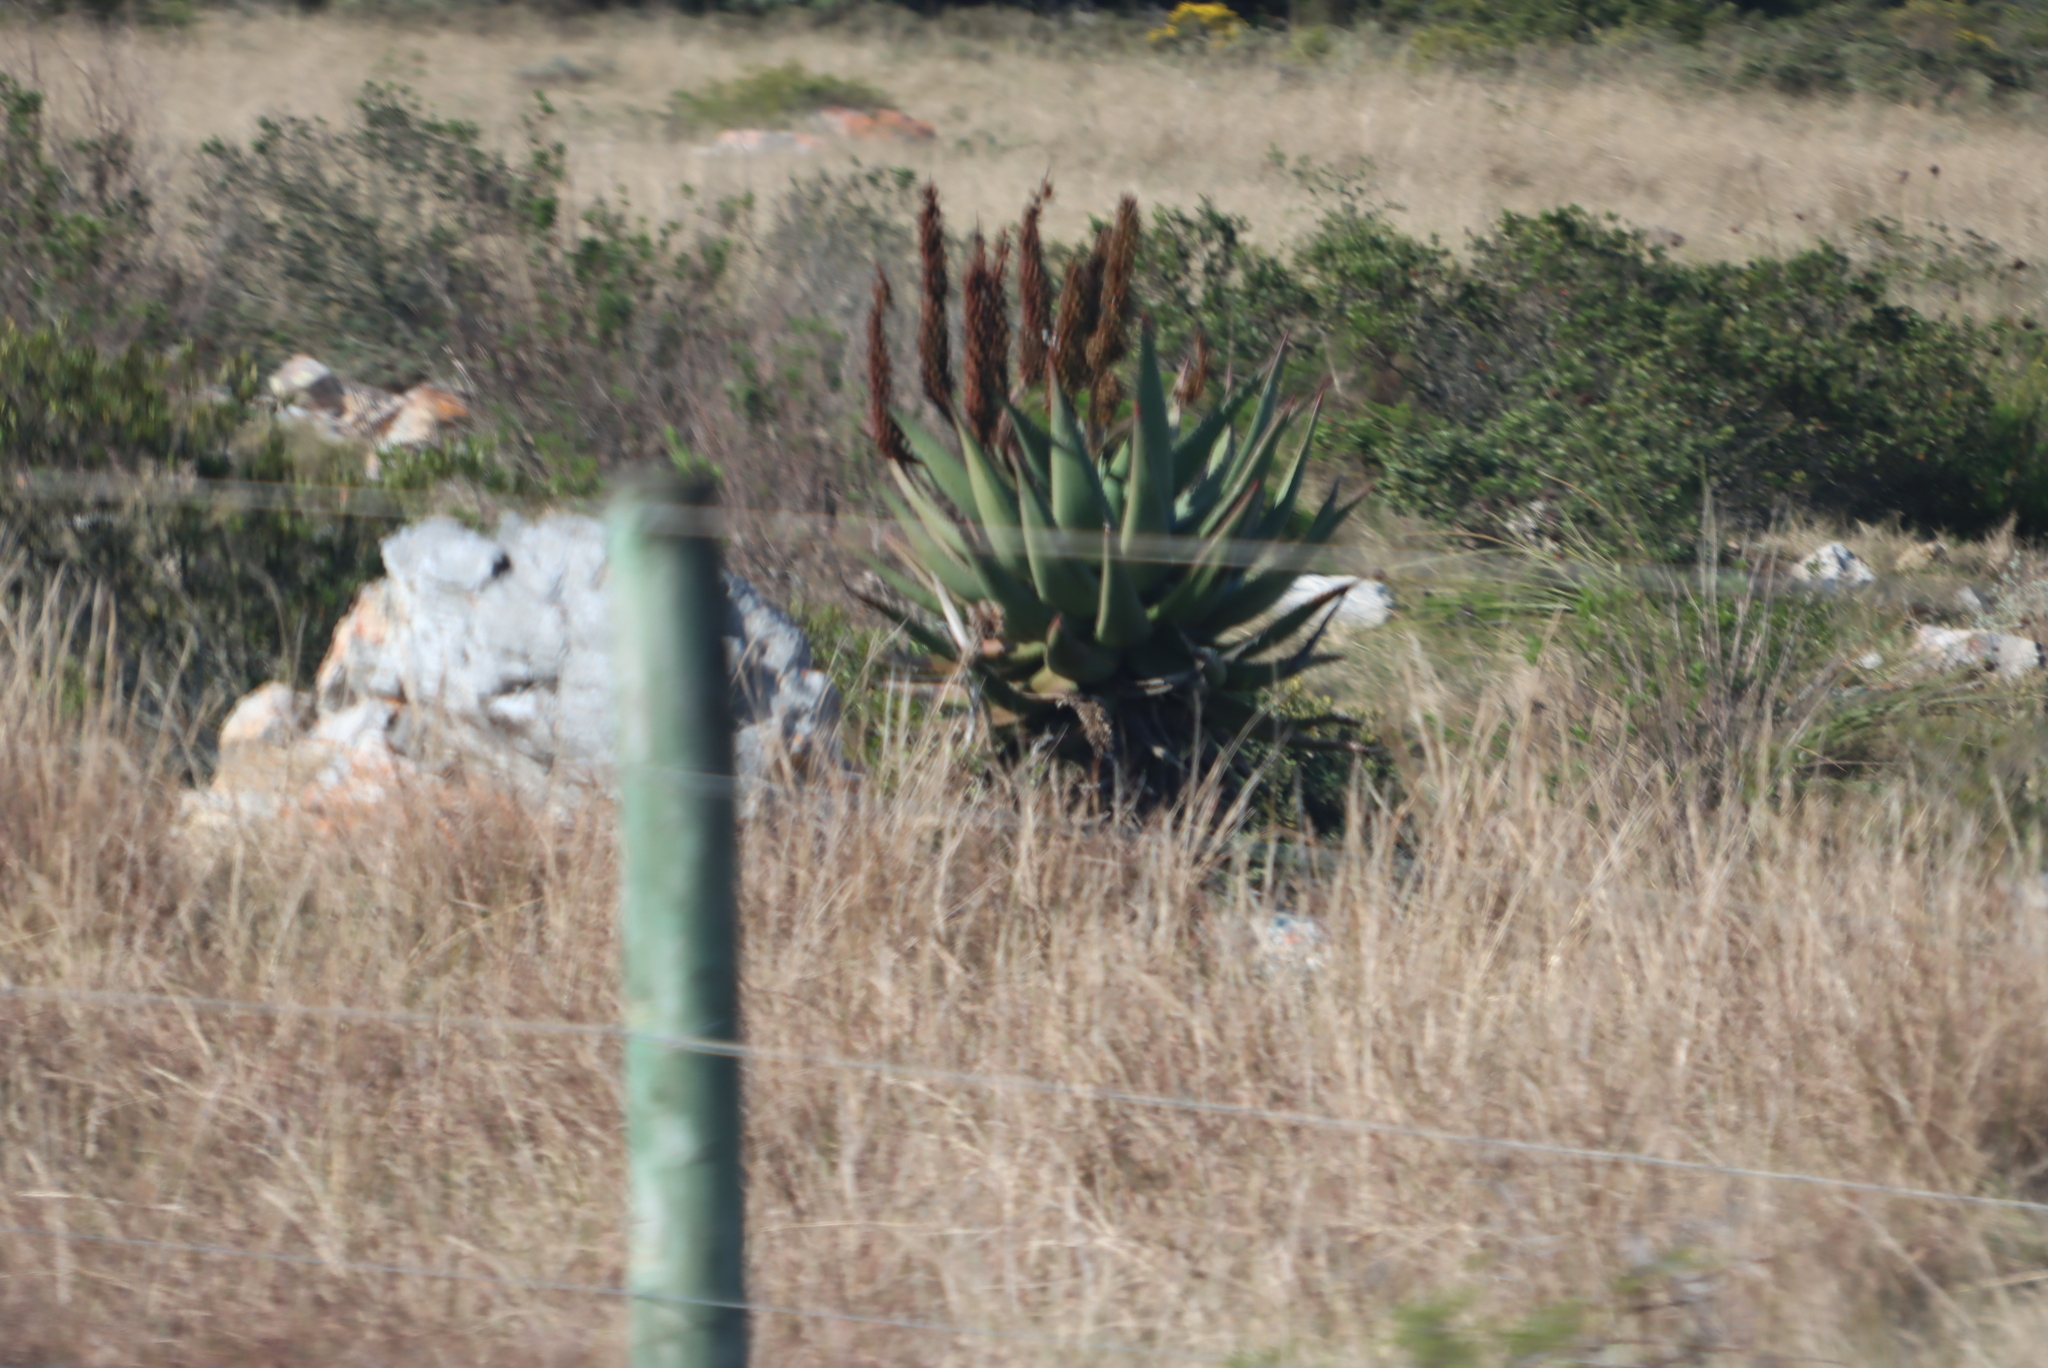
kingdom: Plantae
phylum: Tracheophyta
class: Liliopsida
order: Asparagales
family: Asphodelaceae
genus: Aloe
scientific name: Aloe ferox
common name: Bitter aloe
